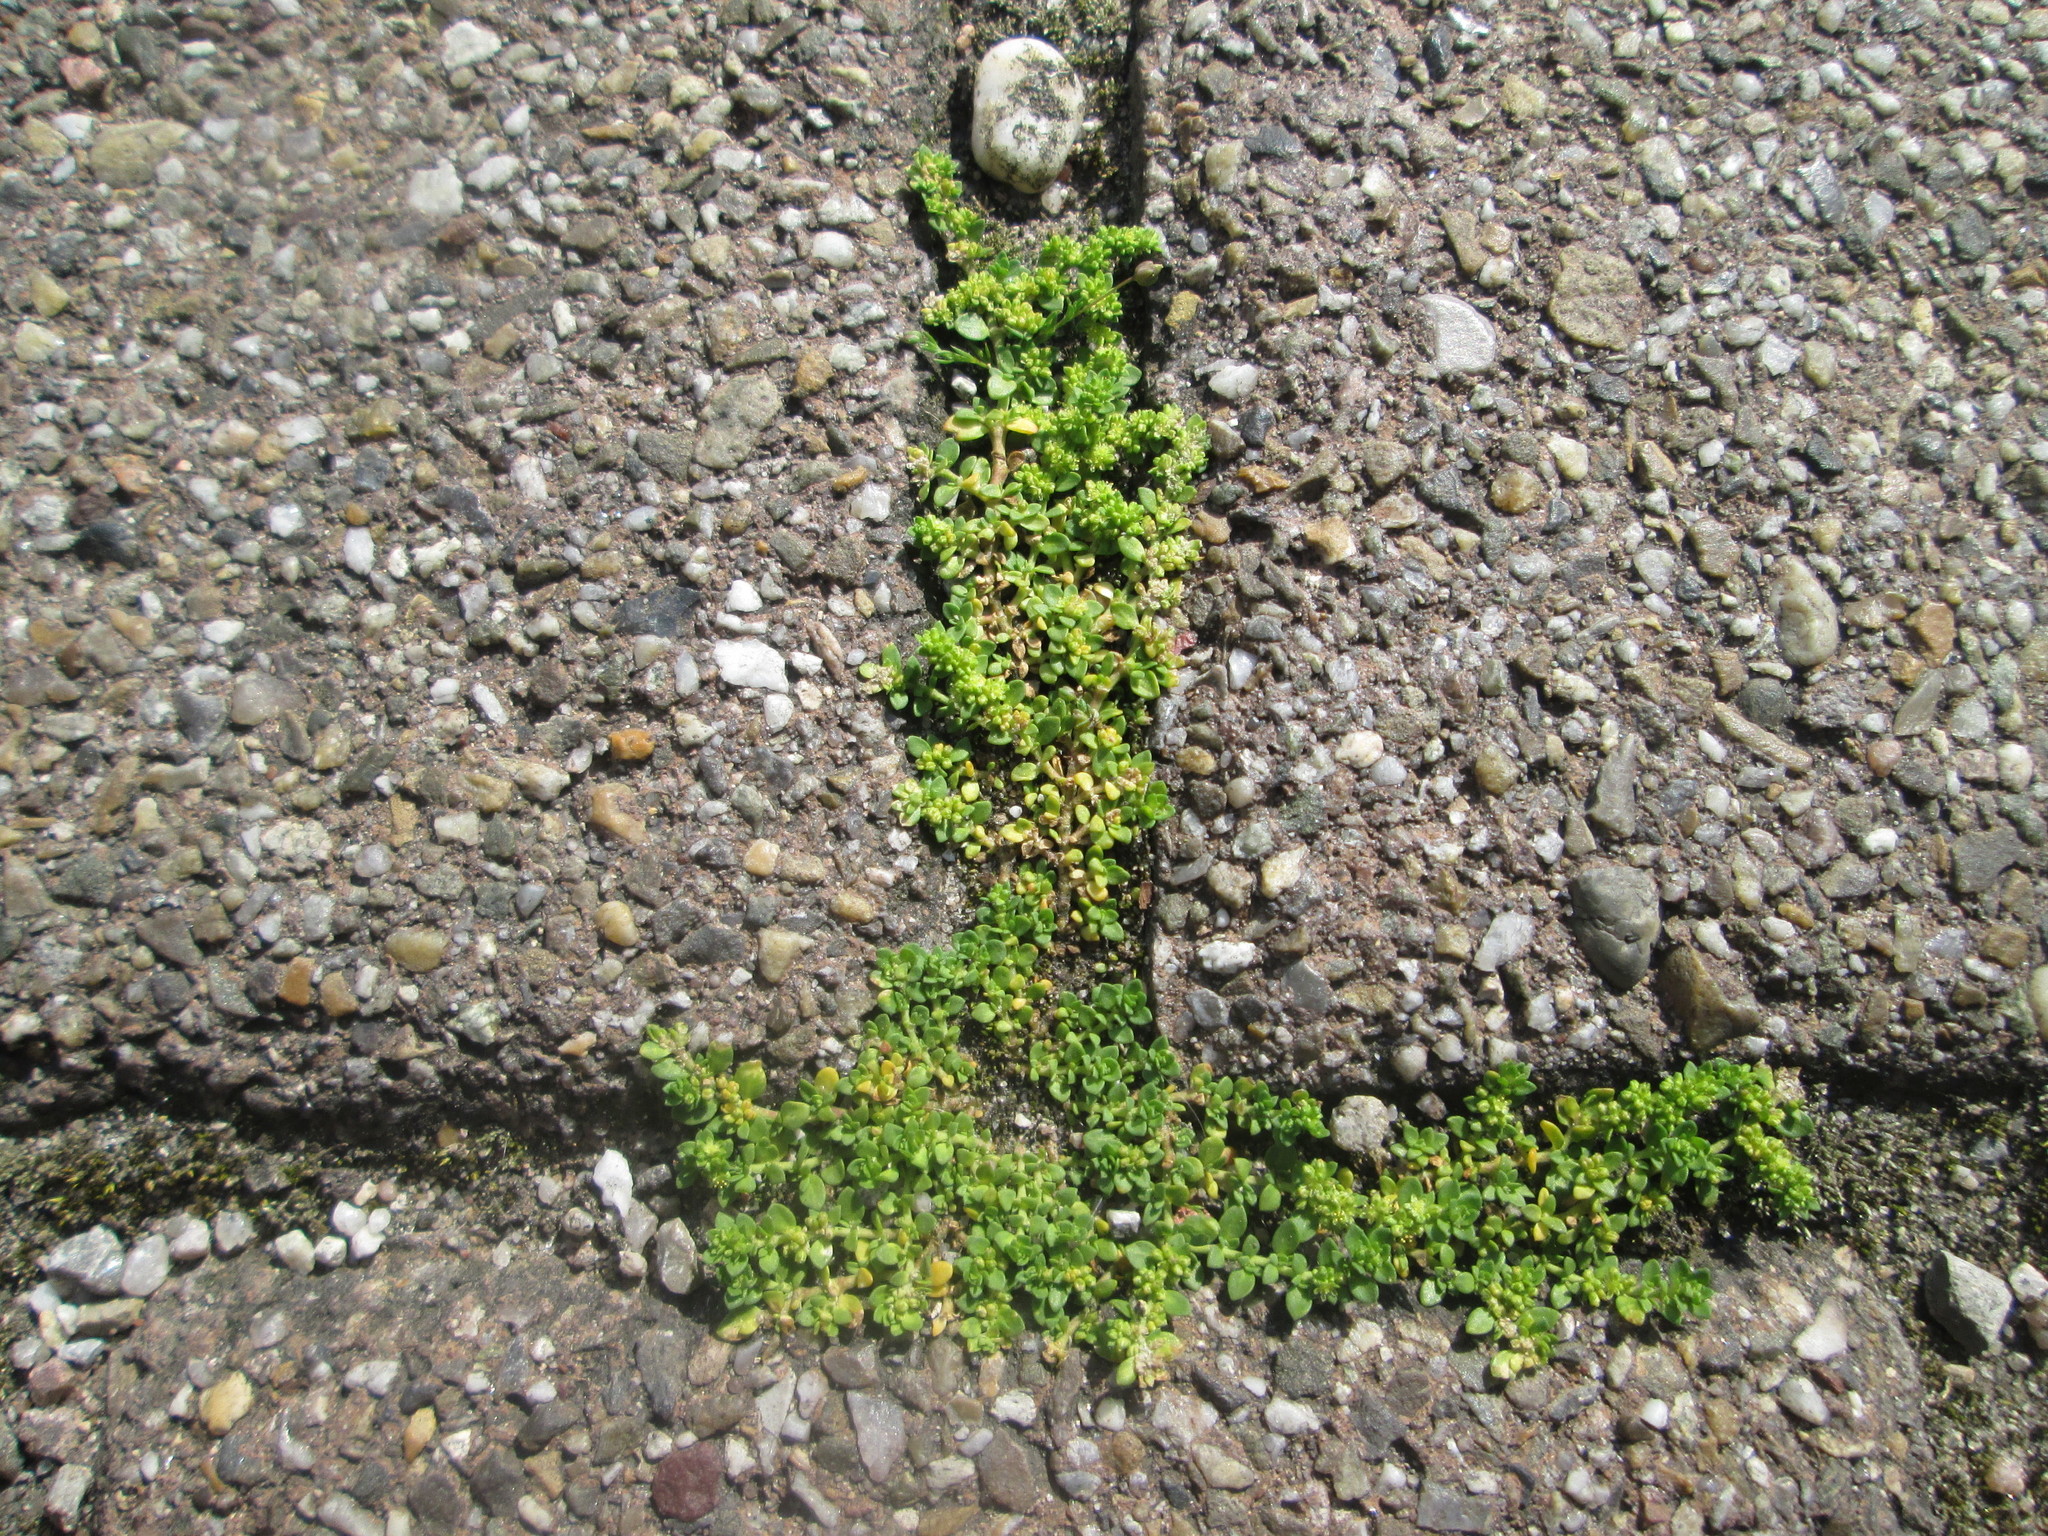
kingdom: Plantae
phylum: Tracheophyta
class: Magnoliopsida
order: Caryophyllales
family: Caryophyllaceae
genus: Herniaria
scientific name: Herniaria glabra
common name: Smooth rupturewort
